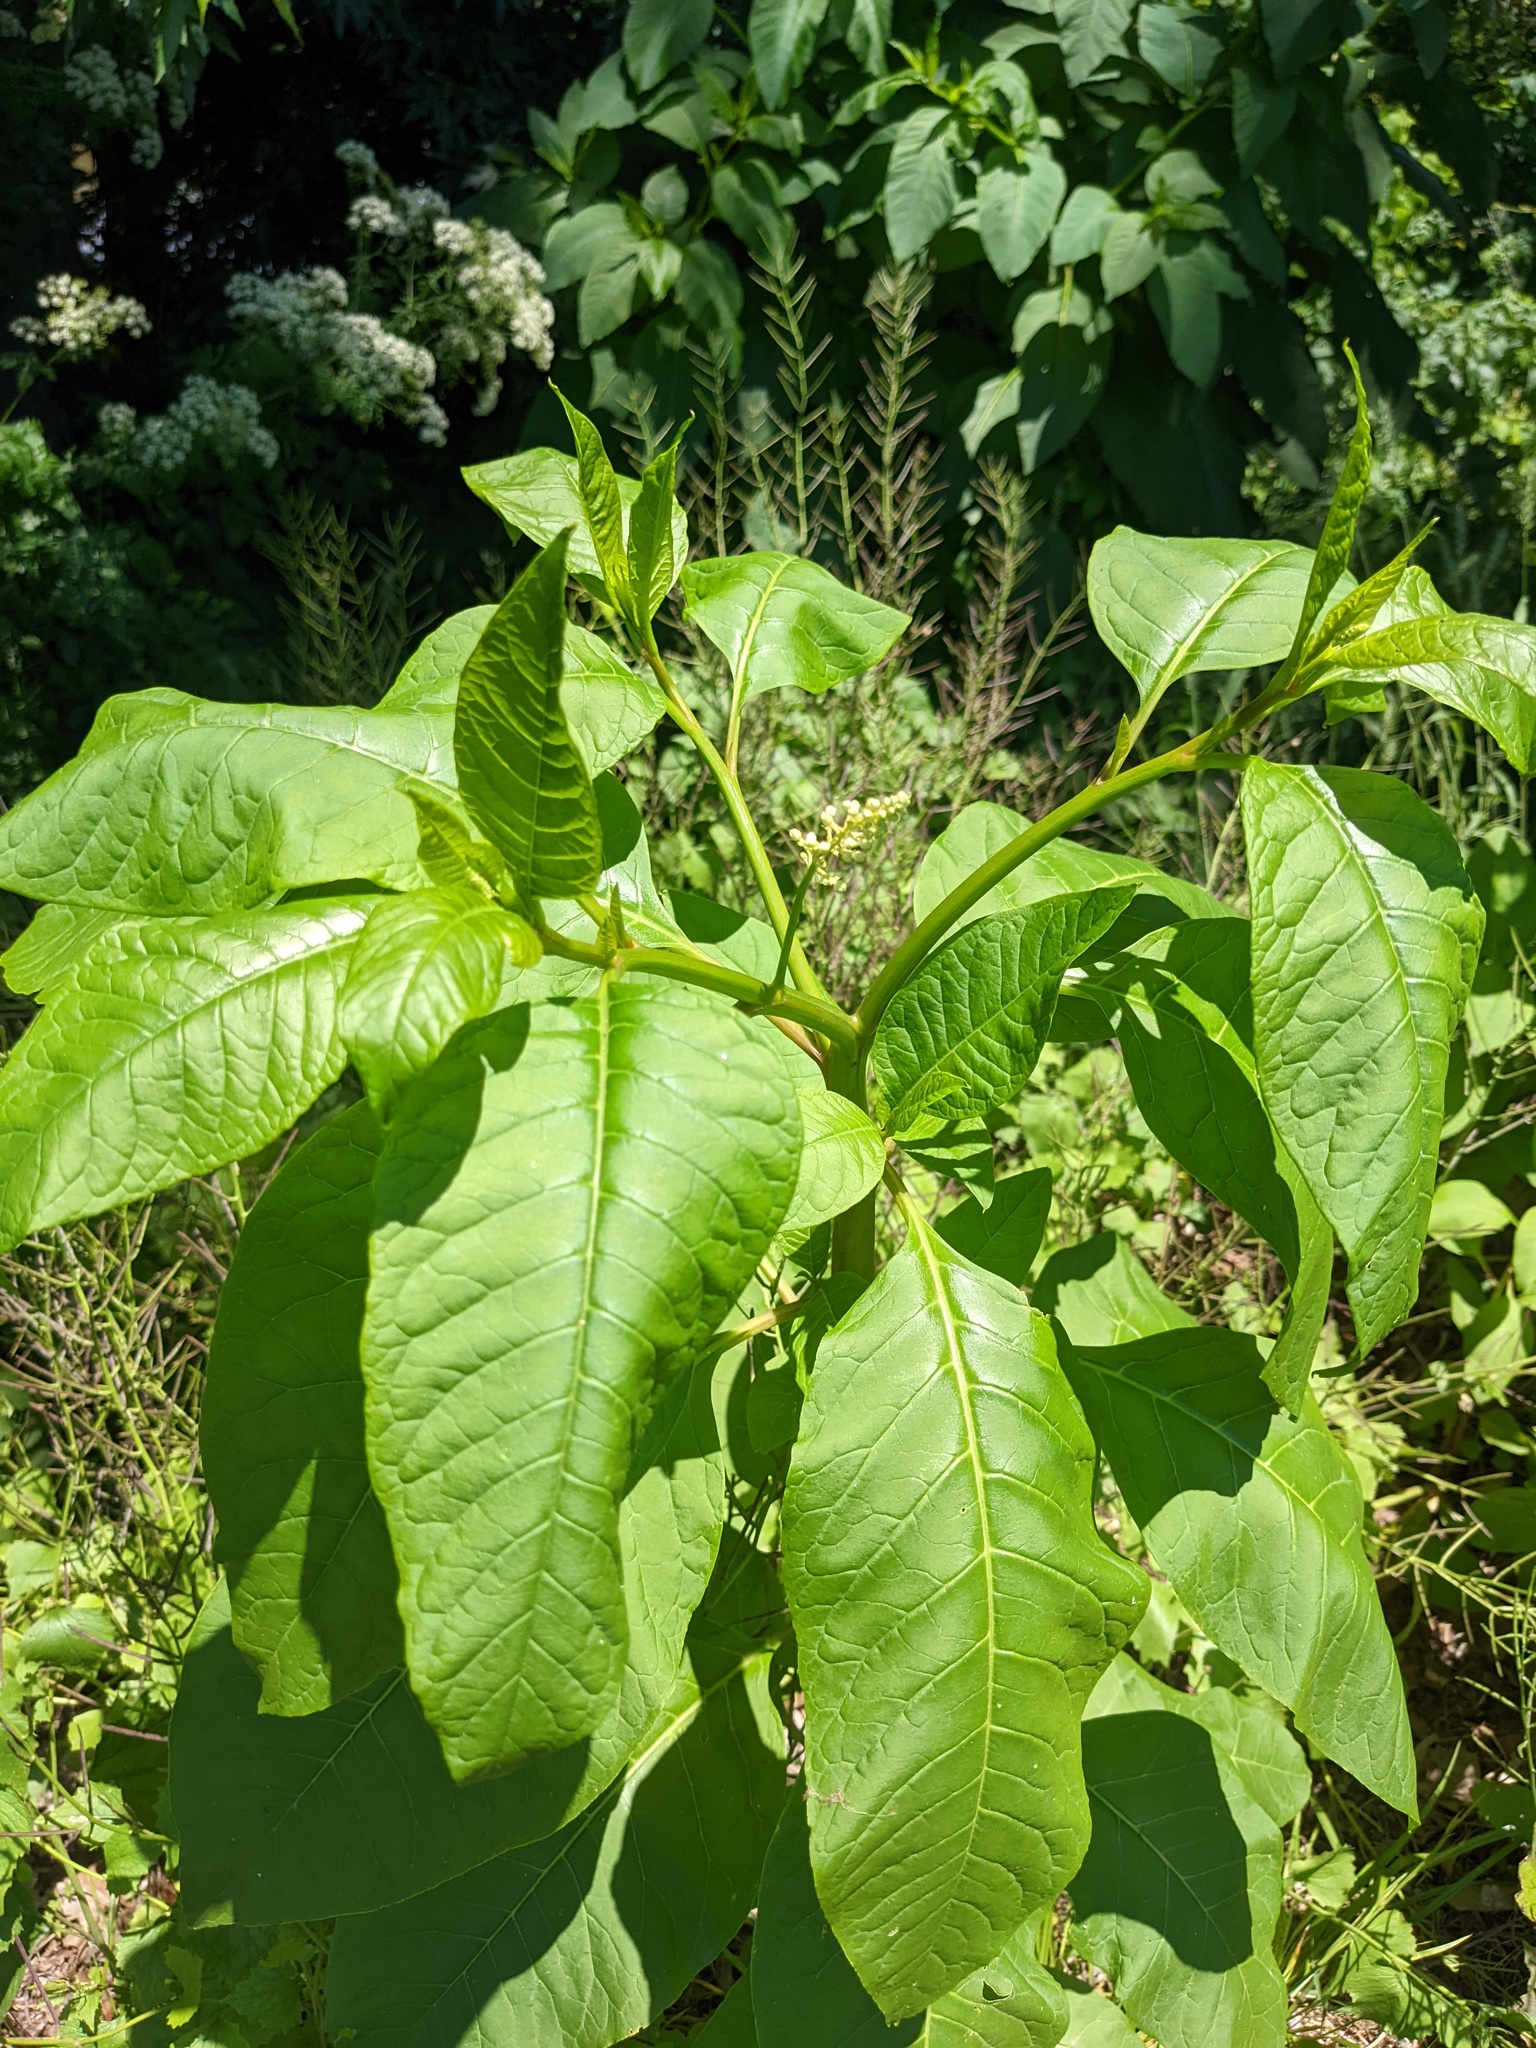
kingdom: Plantae
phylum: Tracheophyta
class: Magnoliopsida
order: Caryophyllales
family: Phytolaccaceae
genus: Phytolacca
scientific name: Phytolacca americana
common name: American pokeweed
